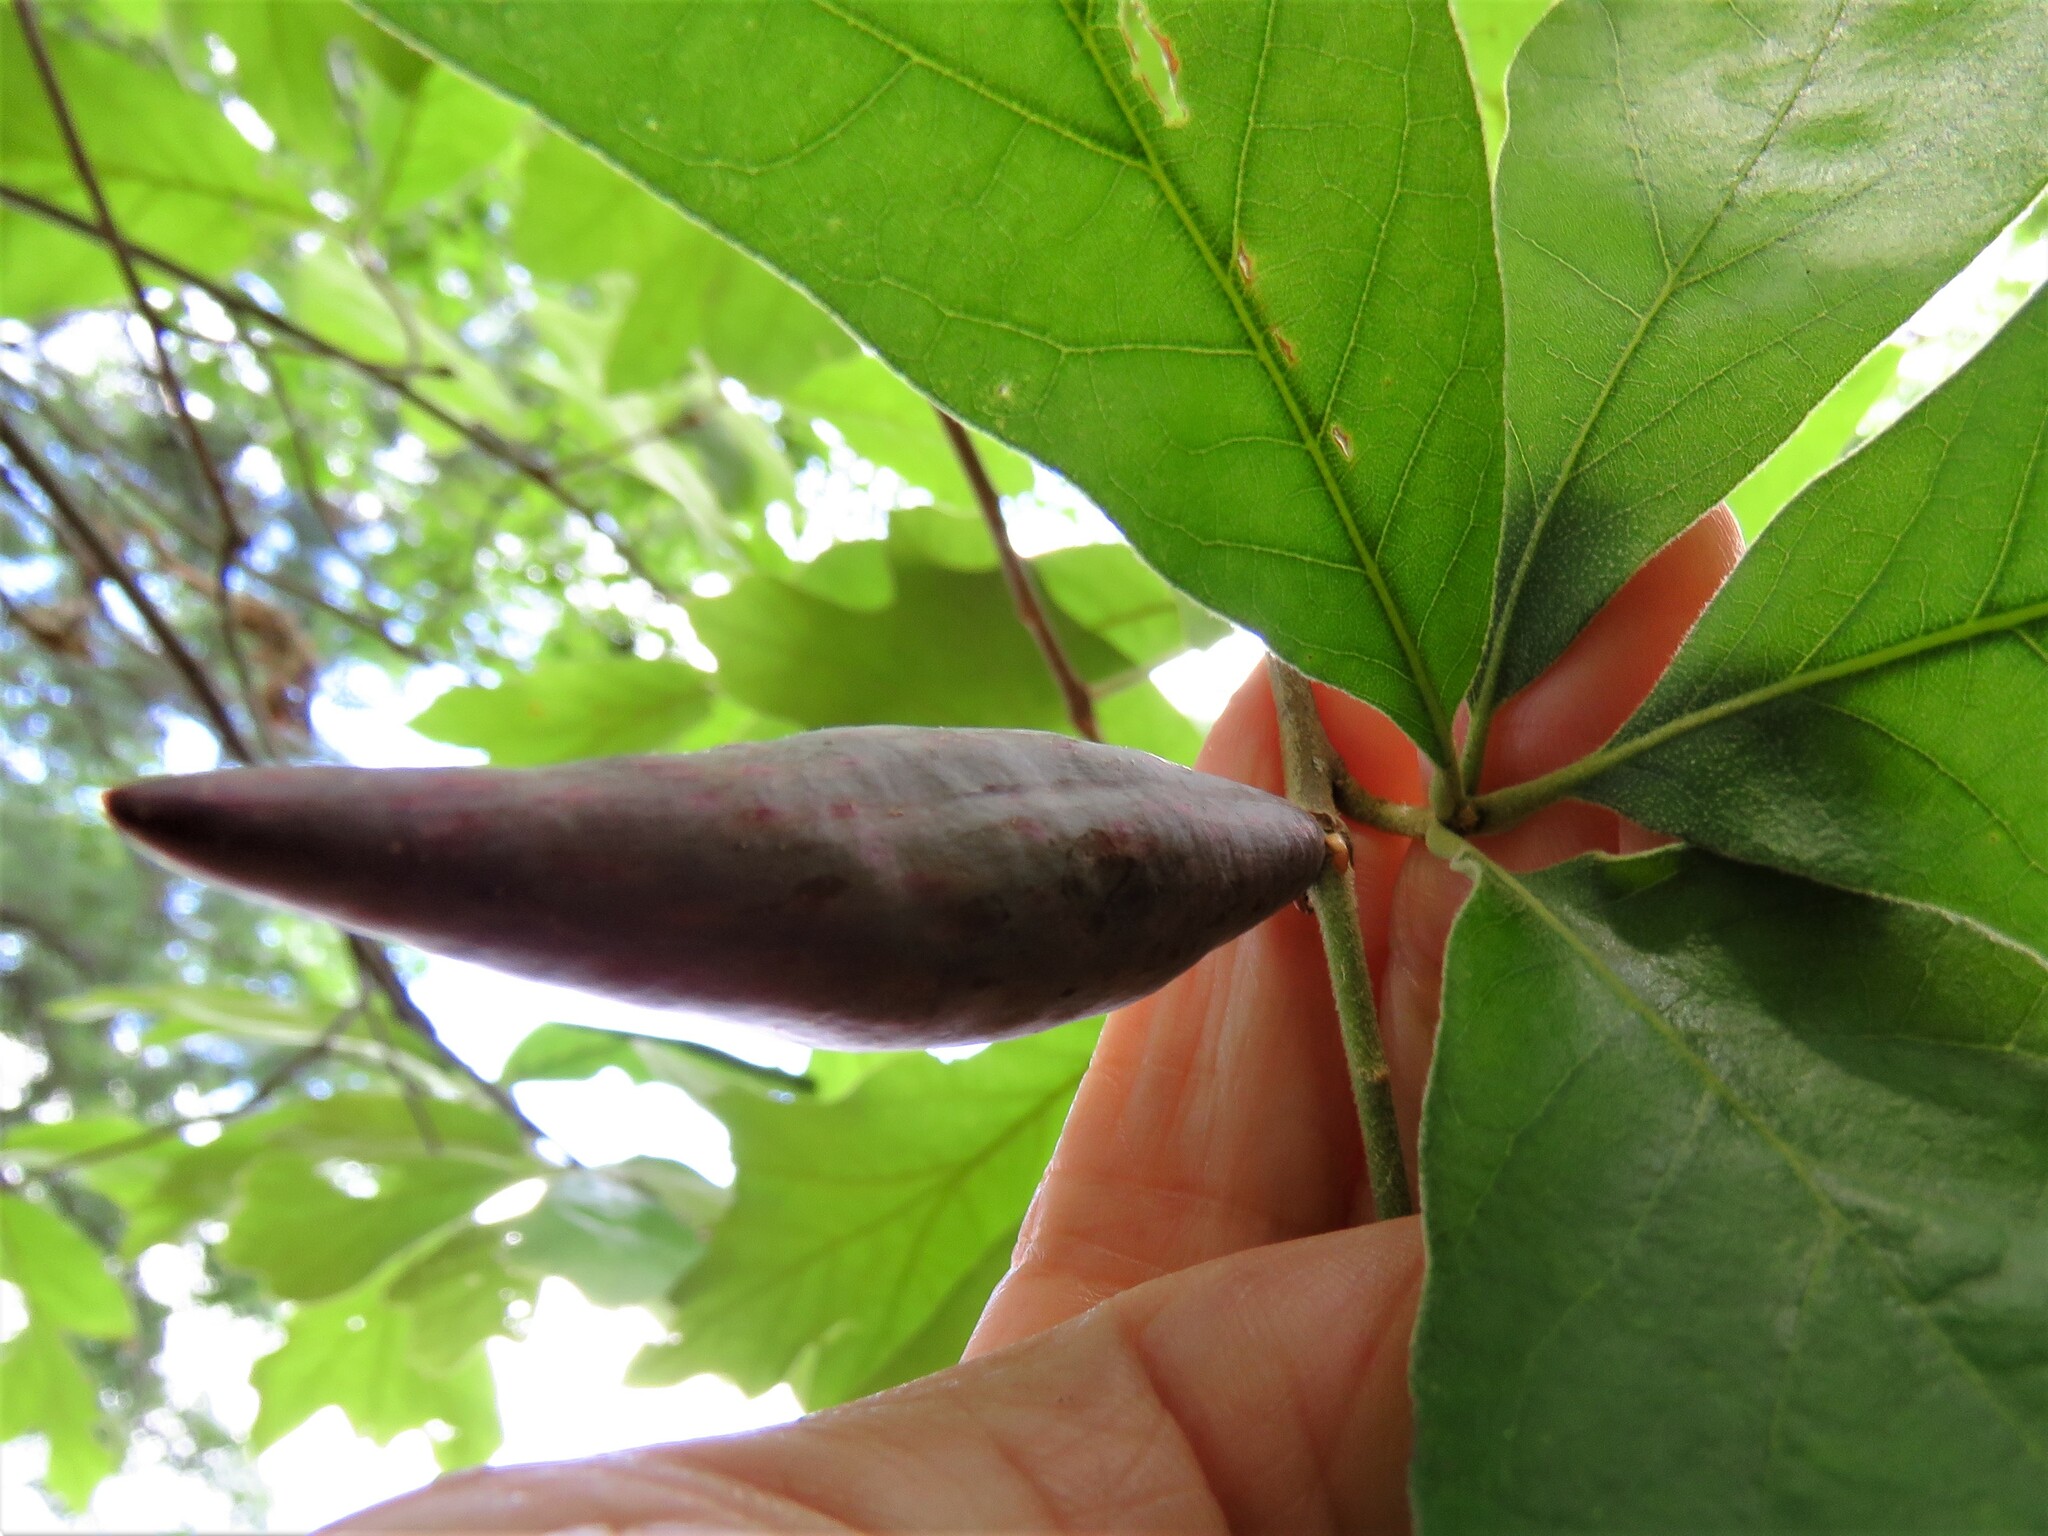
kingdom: Animalia
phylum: Arthropoda
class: Insecta
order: Hymenoptera
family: Cynipidae
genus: Amphibolips
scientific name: Amphibolips
